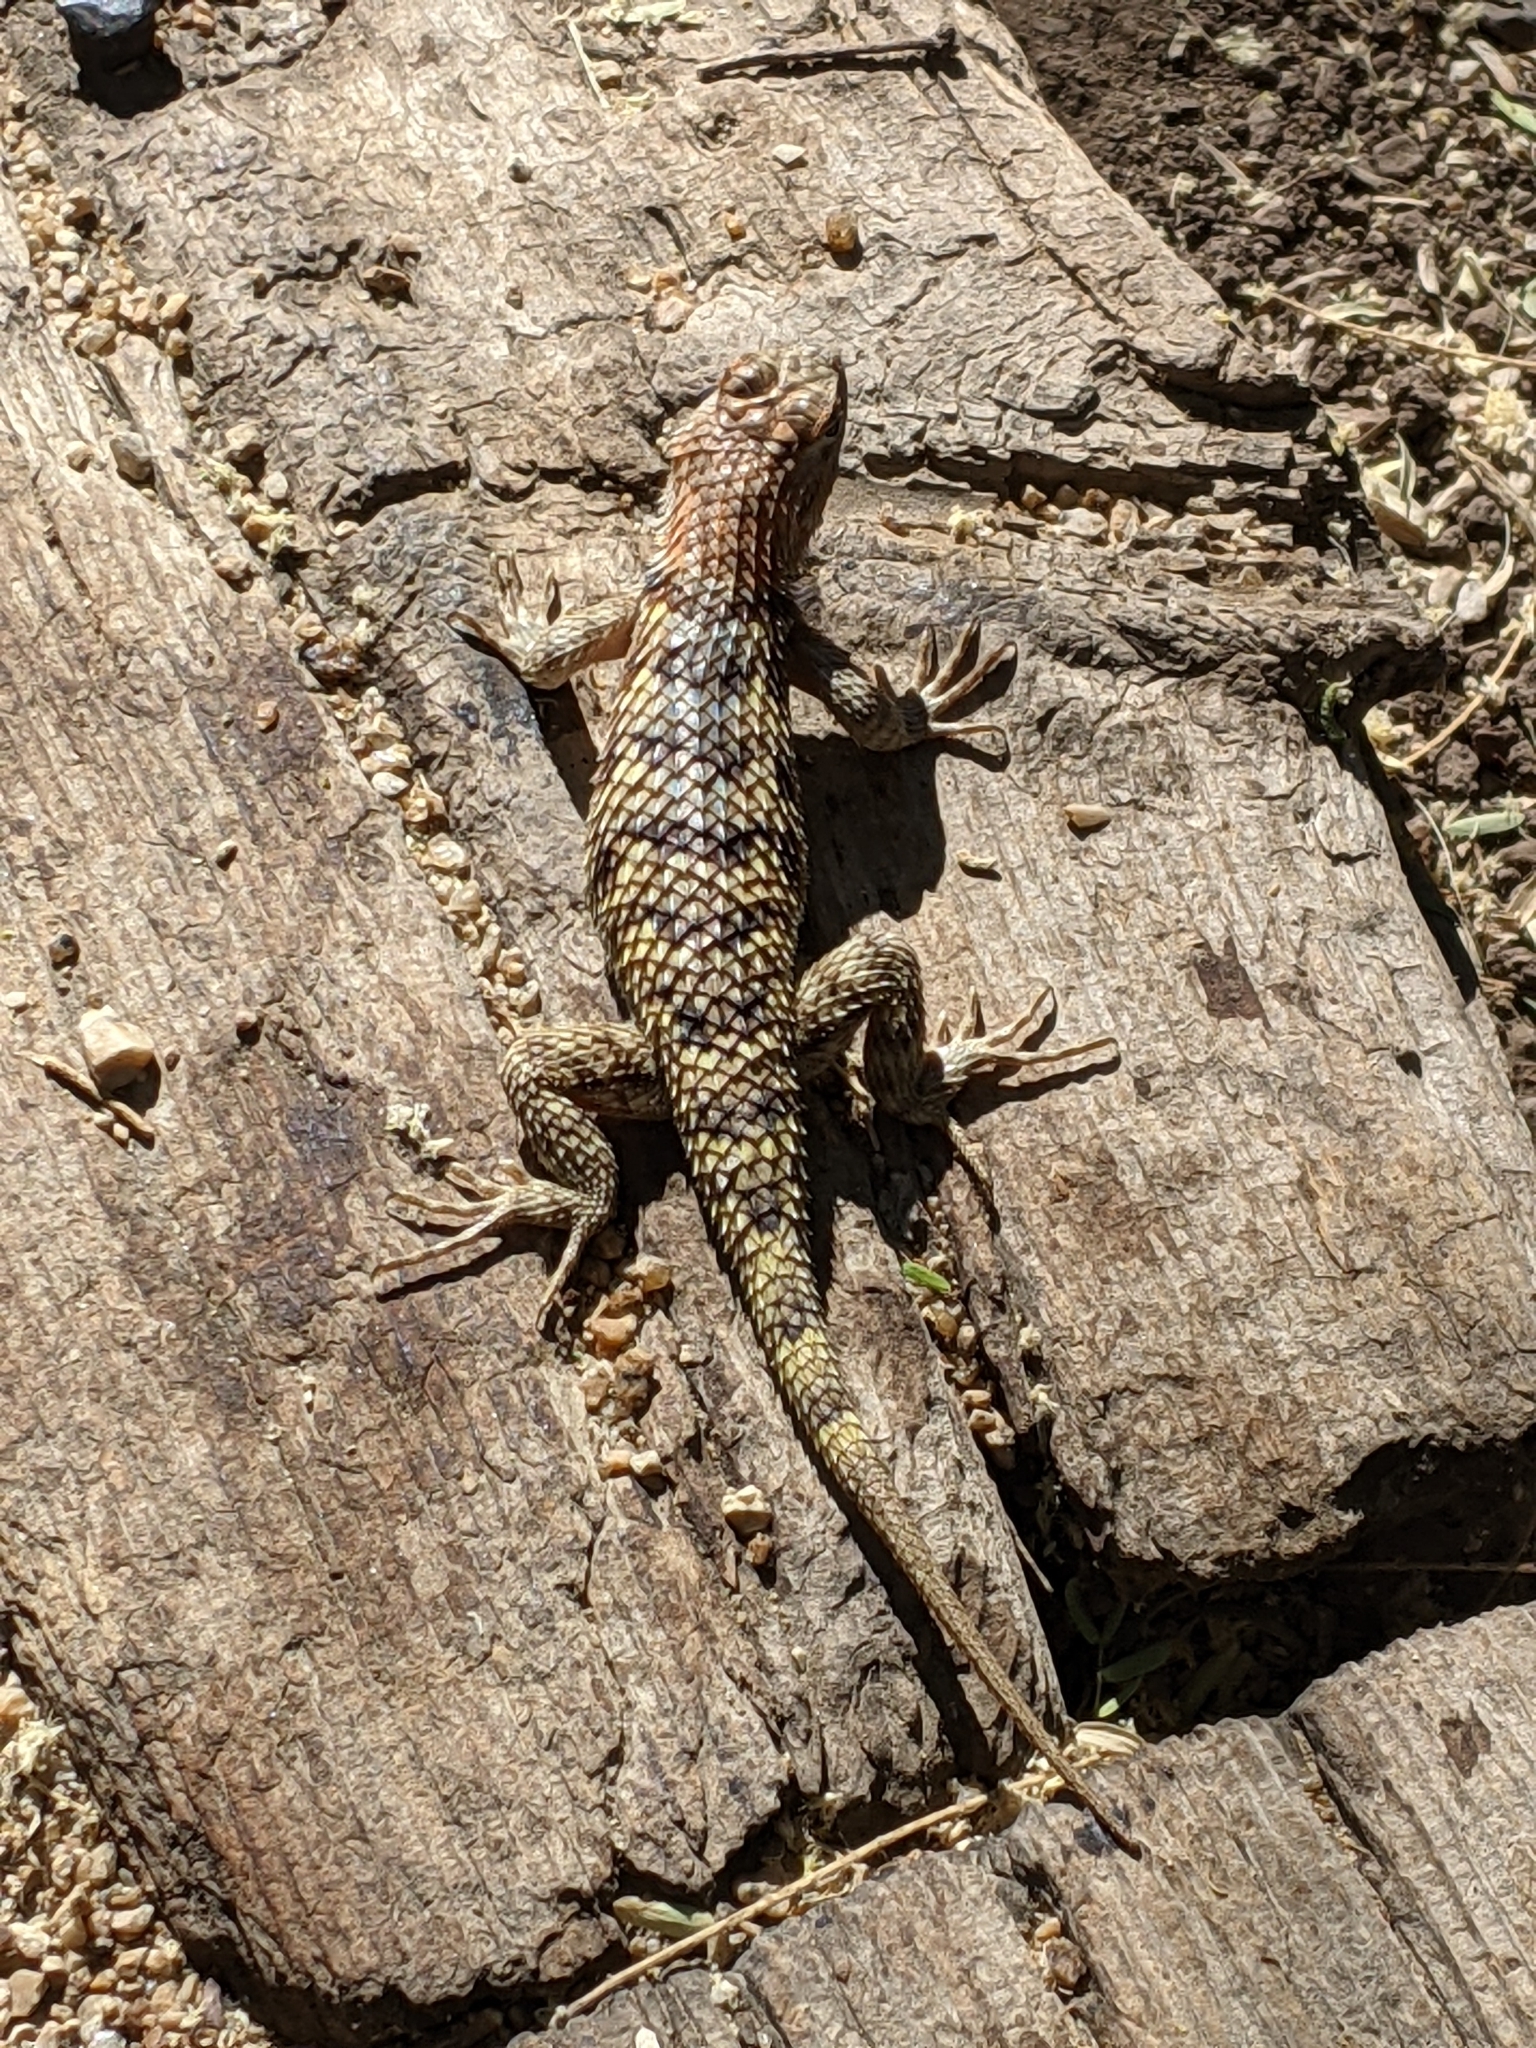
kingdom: Animalia
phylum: Chordata
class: Squamata
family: Phrynosomatidae
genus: Sceloporus
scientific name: Sceloporus magister
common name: Desert spiny lizard
